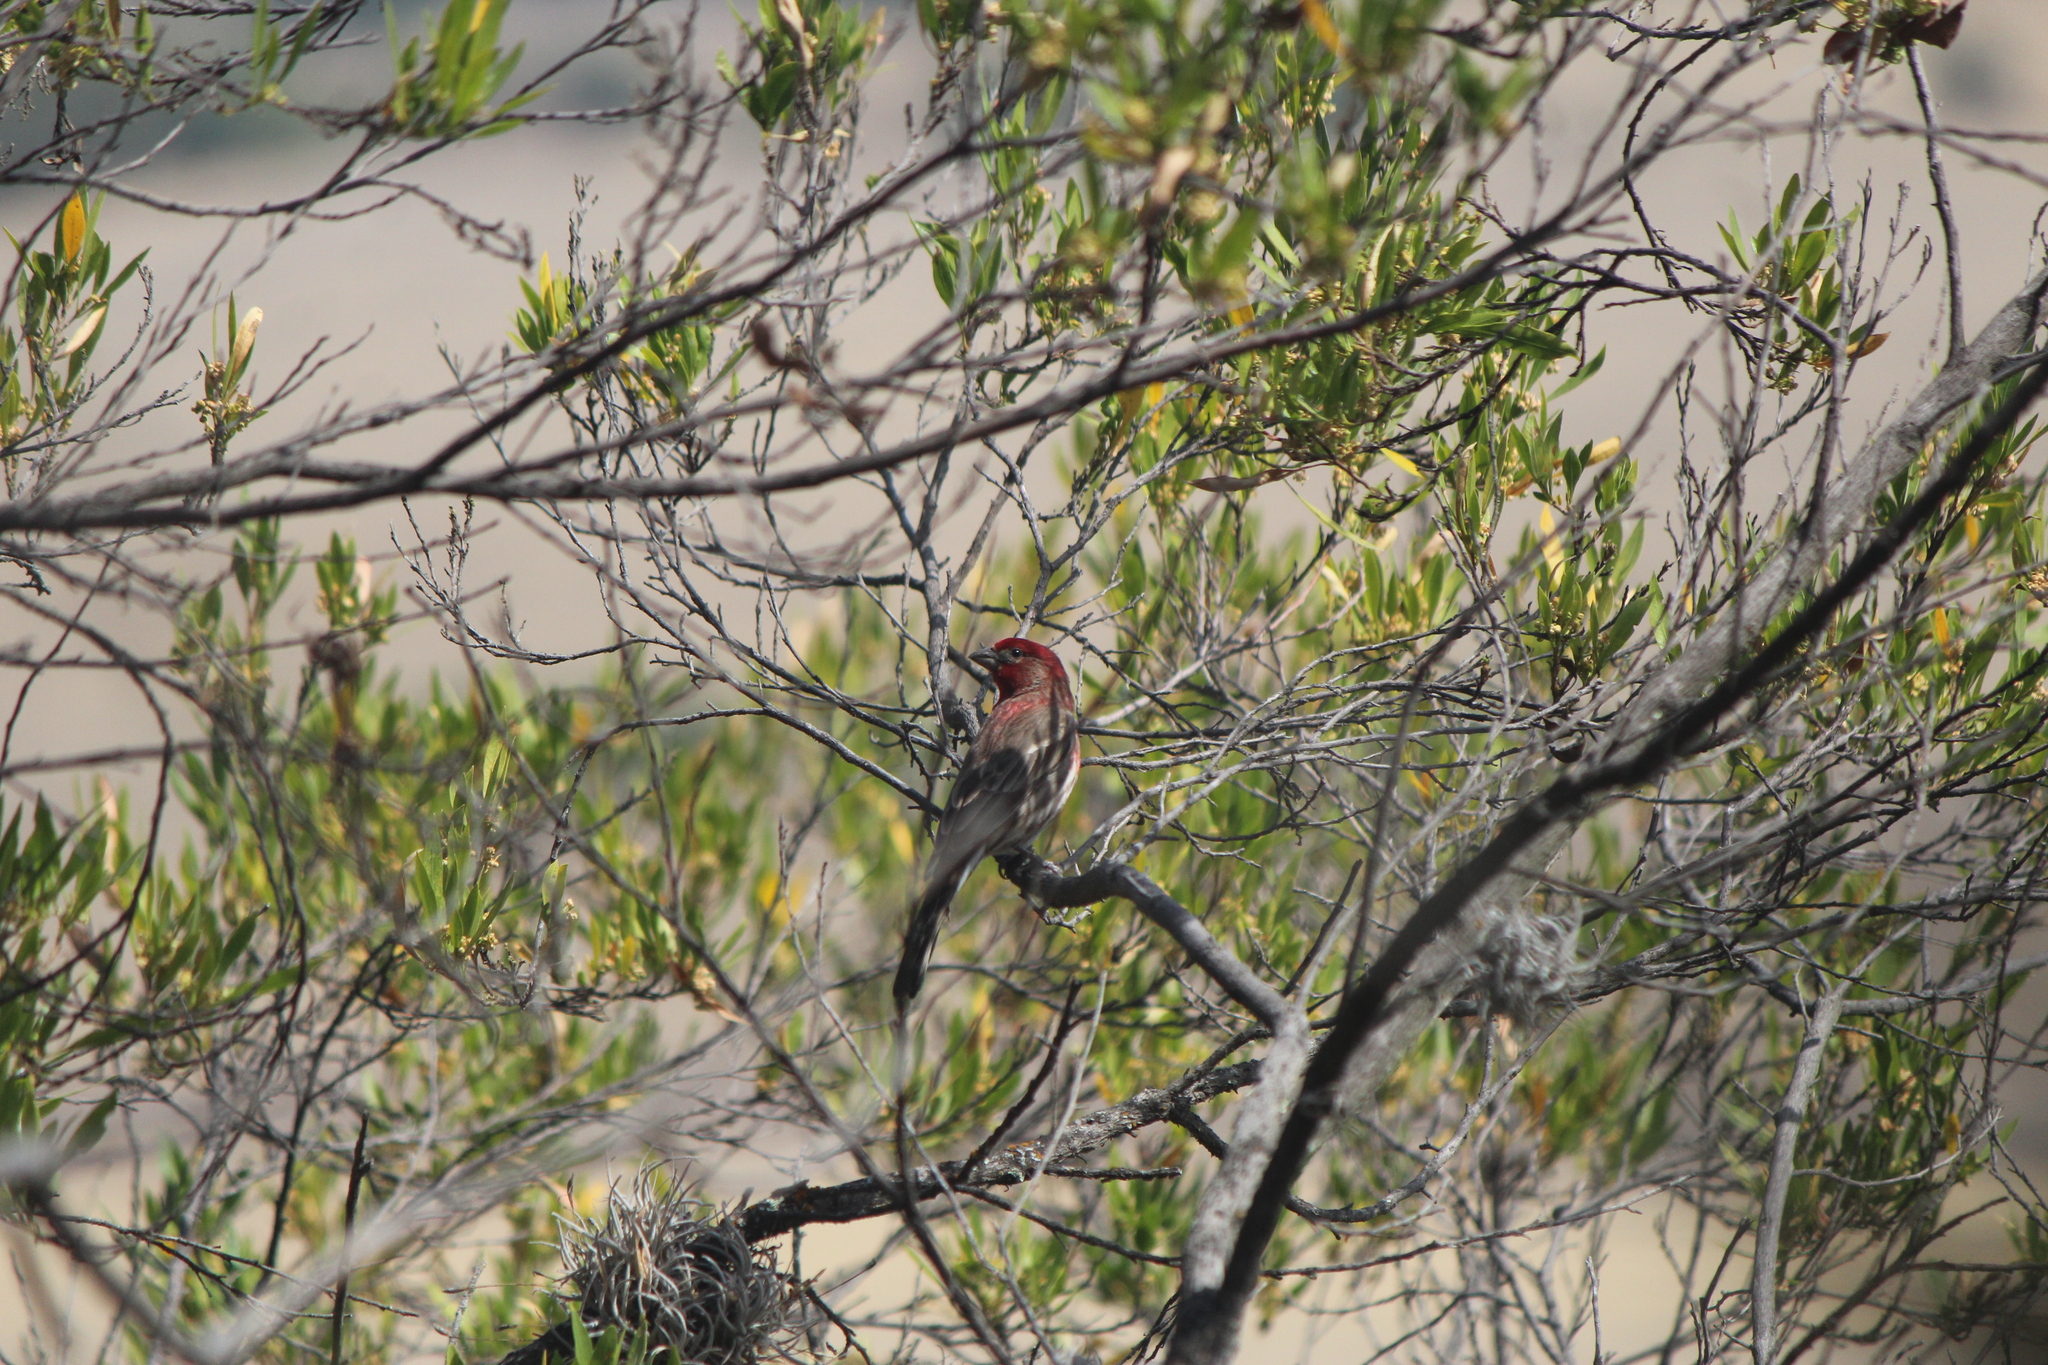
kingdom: Animalia
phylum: Chordata
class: Aves
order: Passeriformes
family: Fringillidae
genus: Haemorhous
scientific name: Haemorhous mexicanus
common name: House finch
